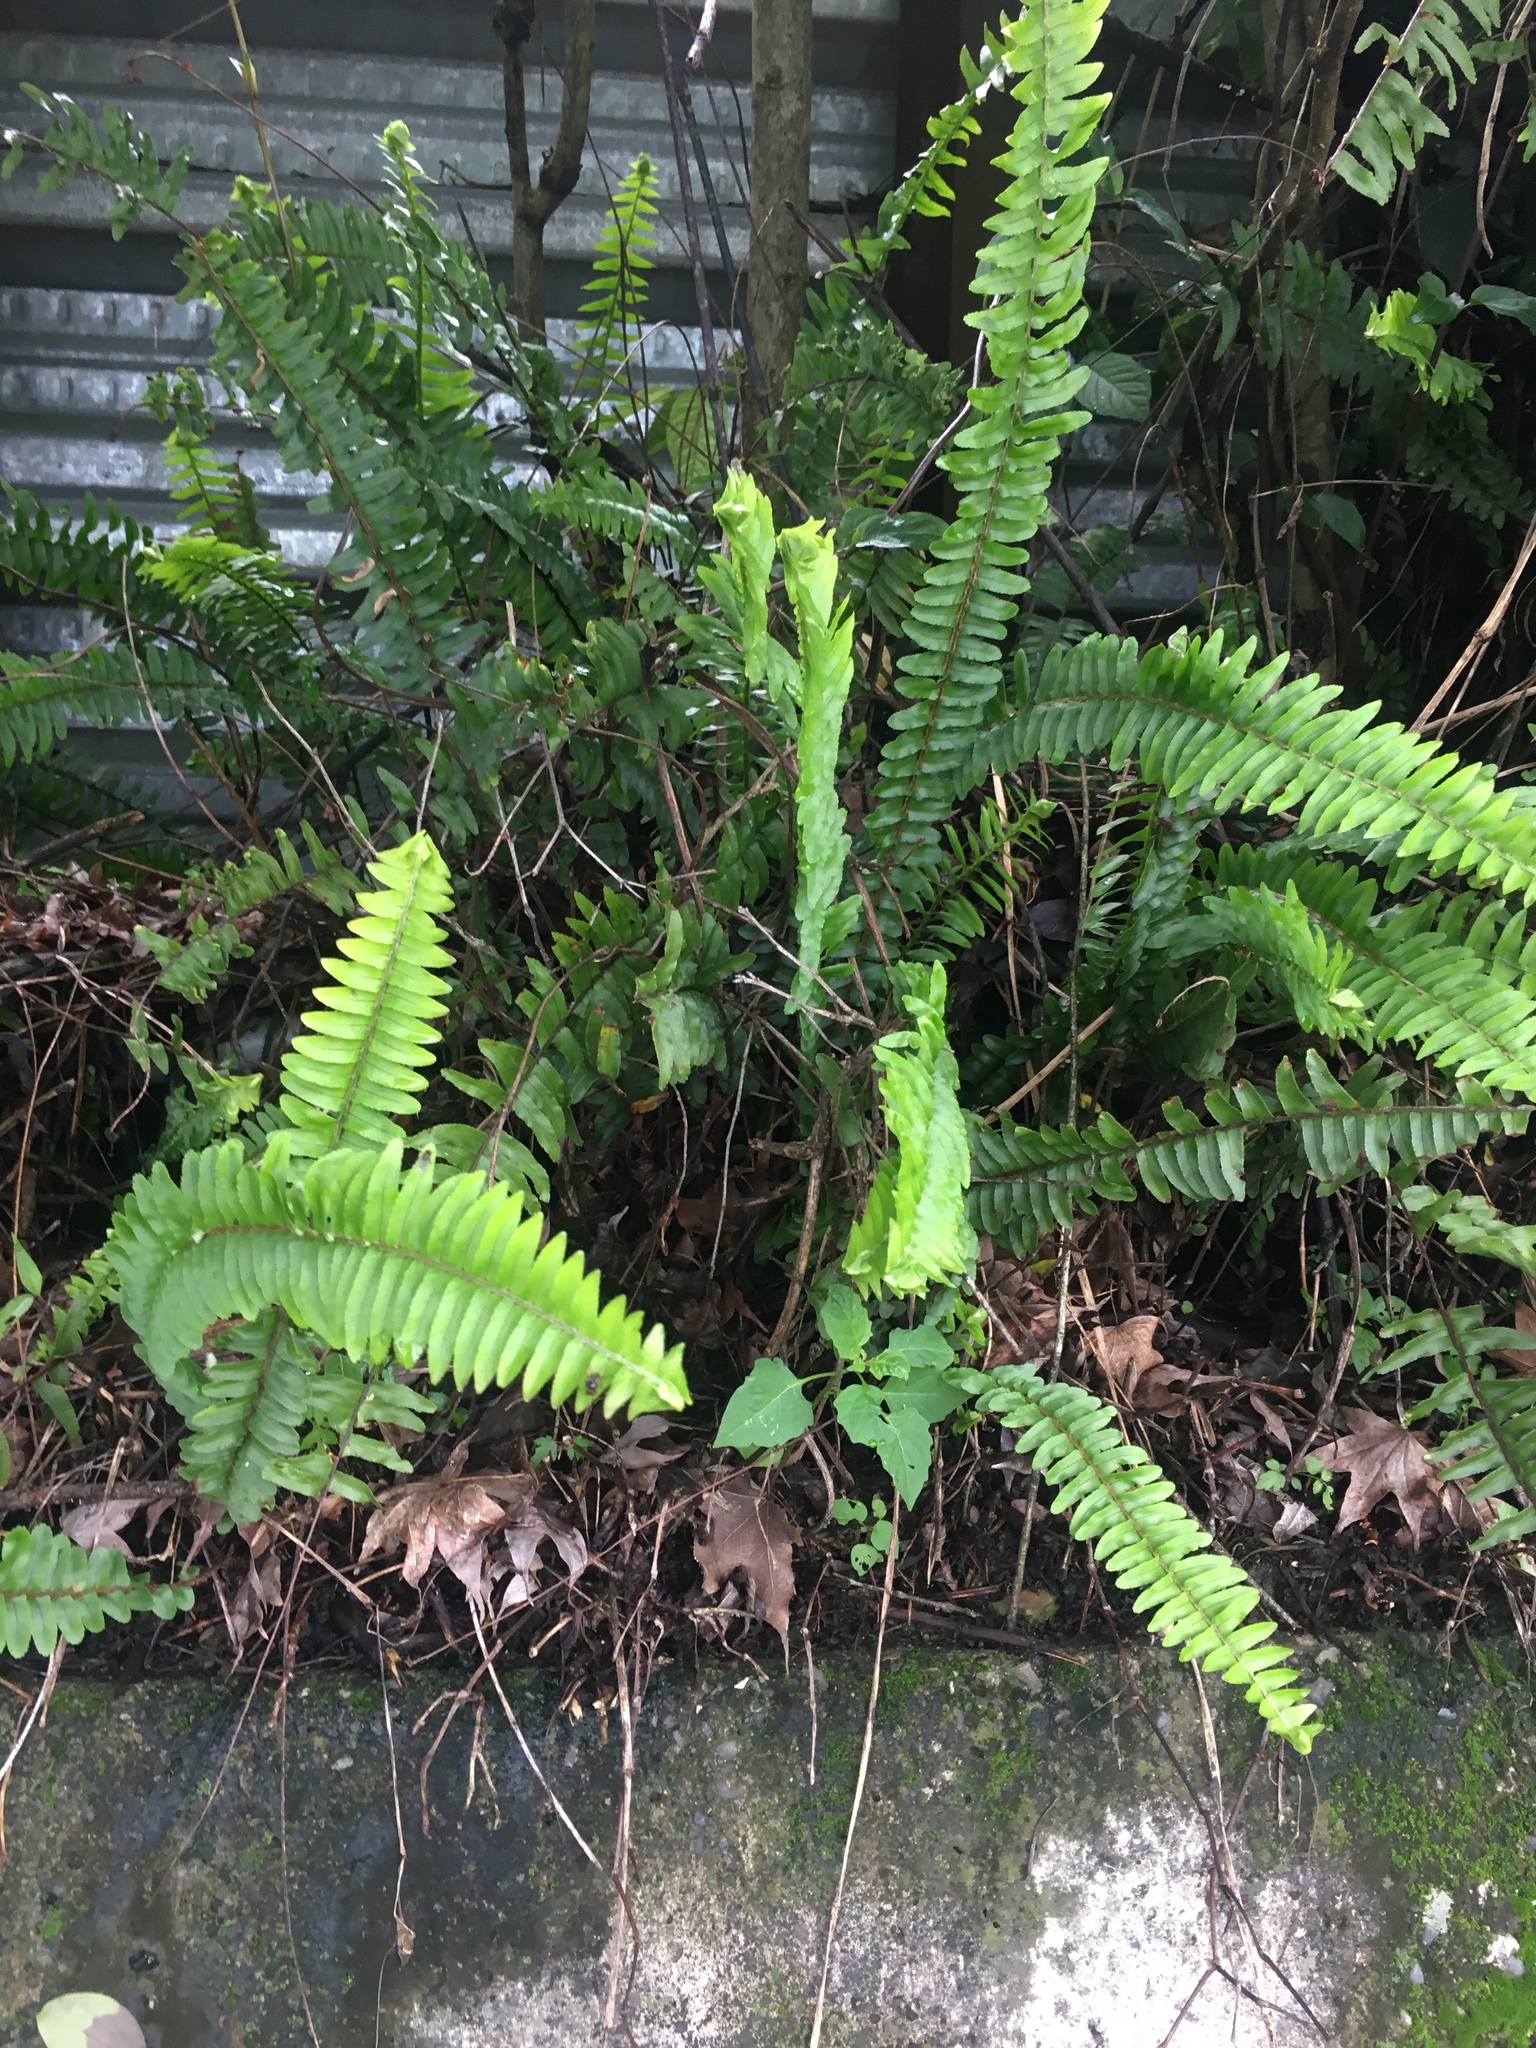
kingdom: Plantae
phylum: Tracheophyta
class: Polypodiopsida
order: Polypodiales
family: Nephrolepidaceae
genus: Nephrolepis
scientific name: Nephrolepis cordifolia
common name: Narrow swordfern
